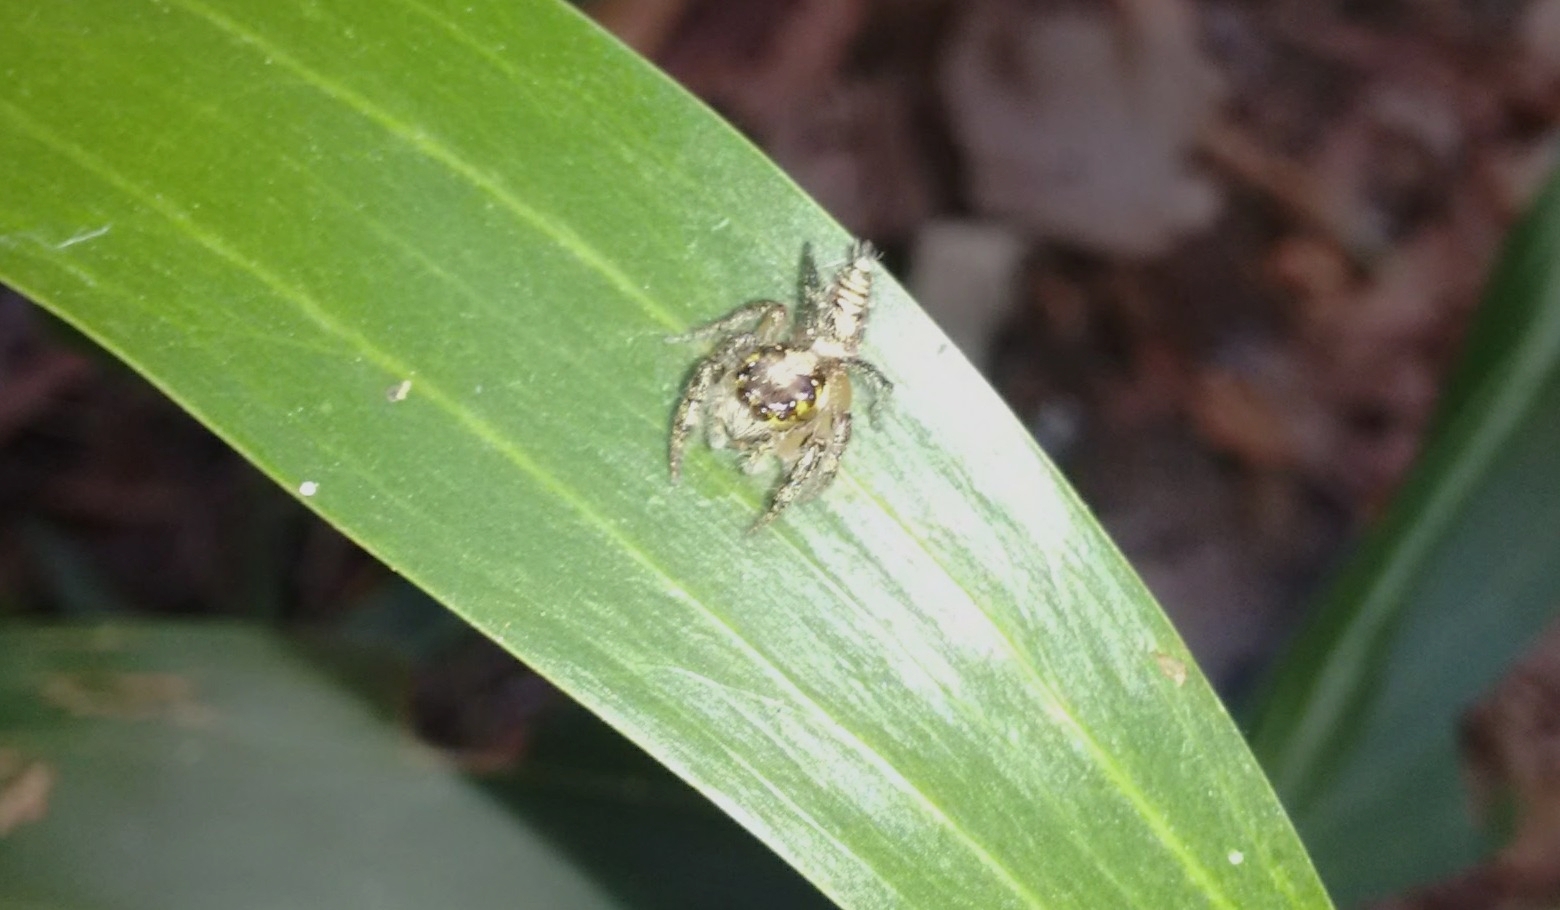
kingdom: Animalia
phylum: Arthropoda
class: Arachnida
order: Araneae
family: Salticidae
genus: Hyllus
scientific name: Hyllus semicupreus
